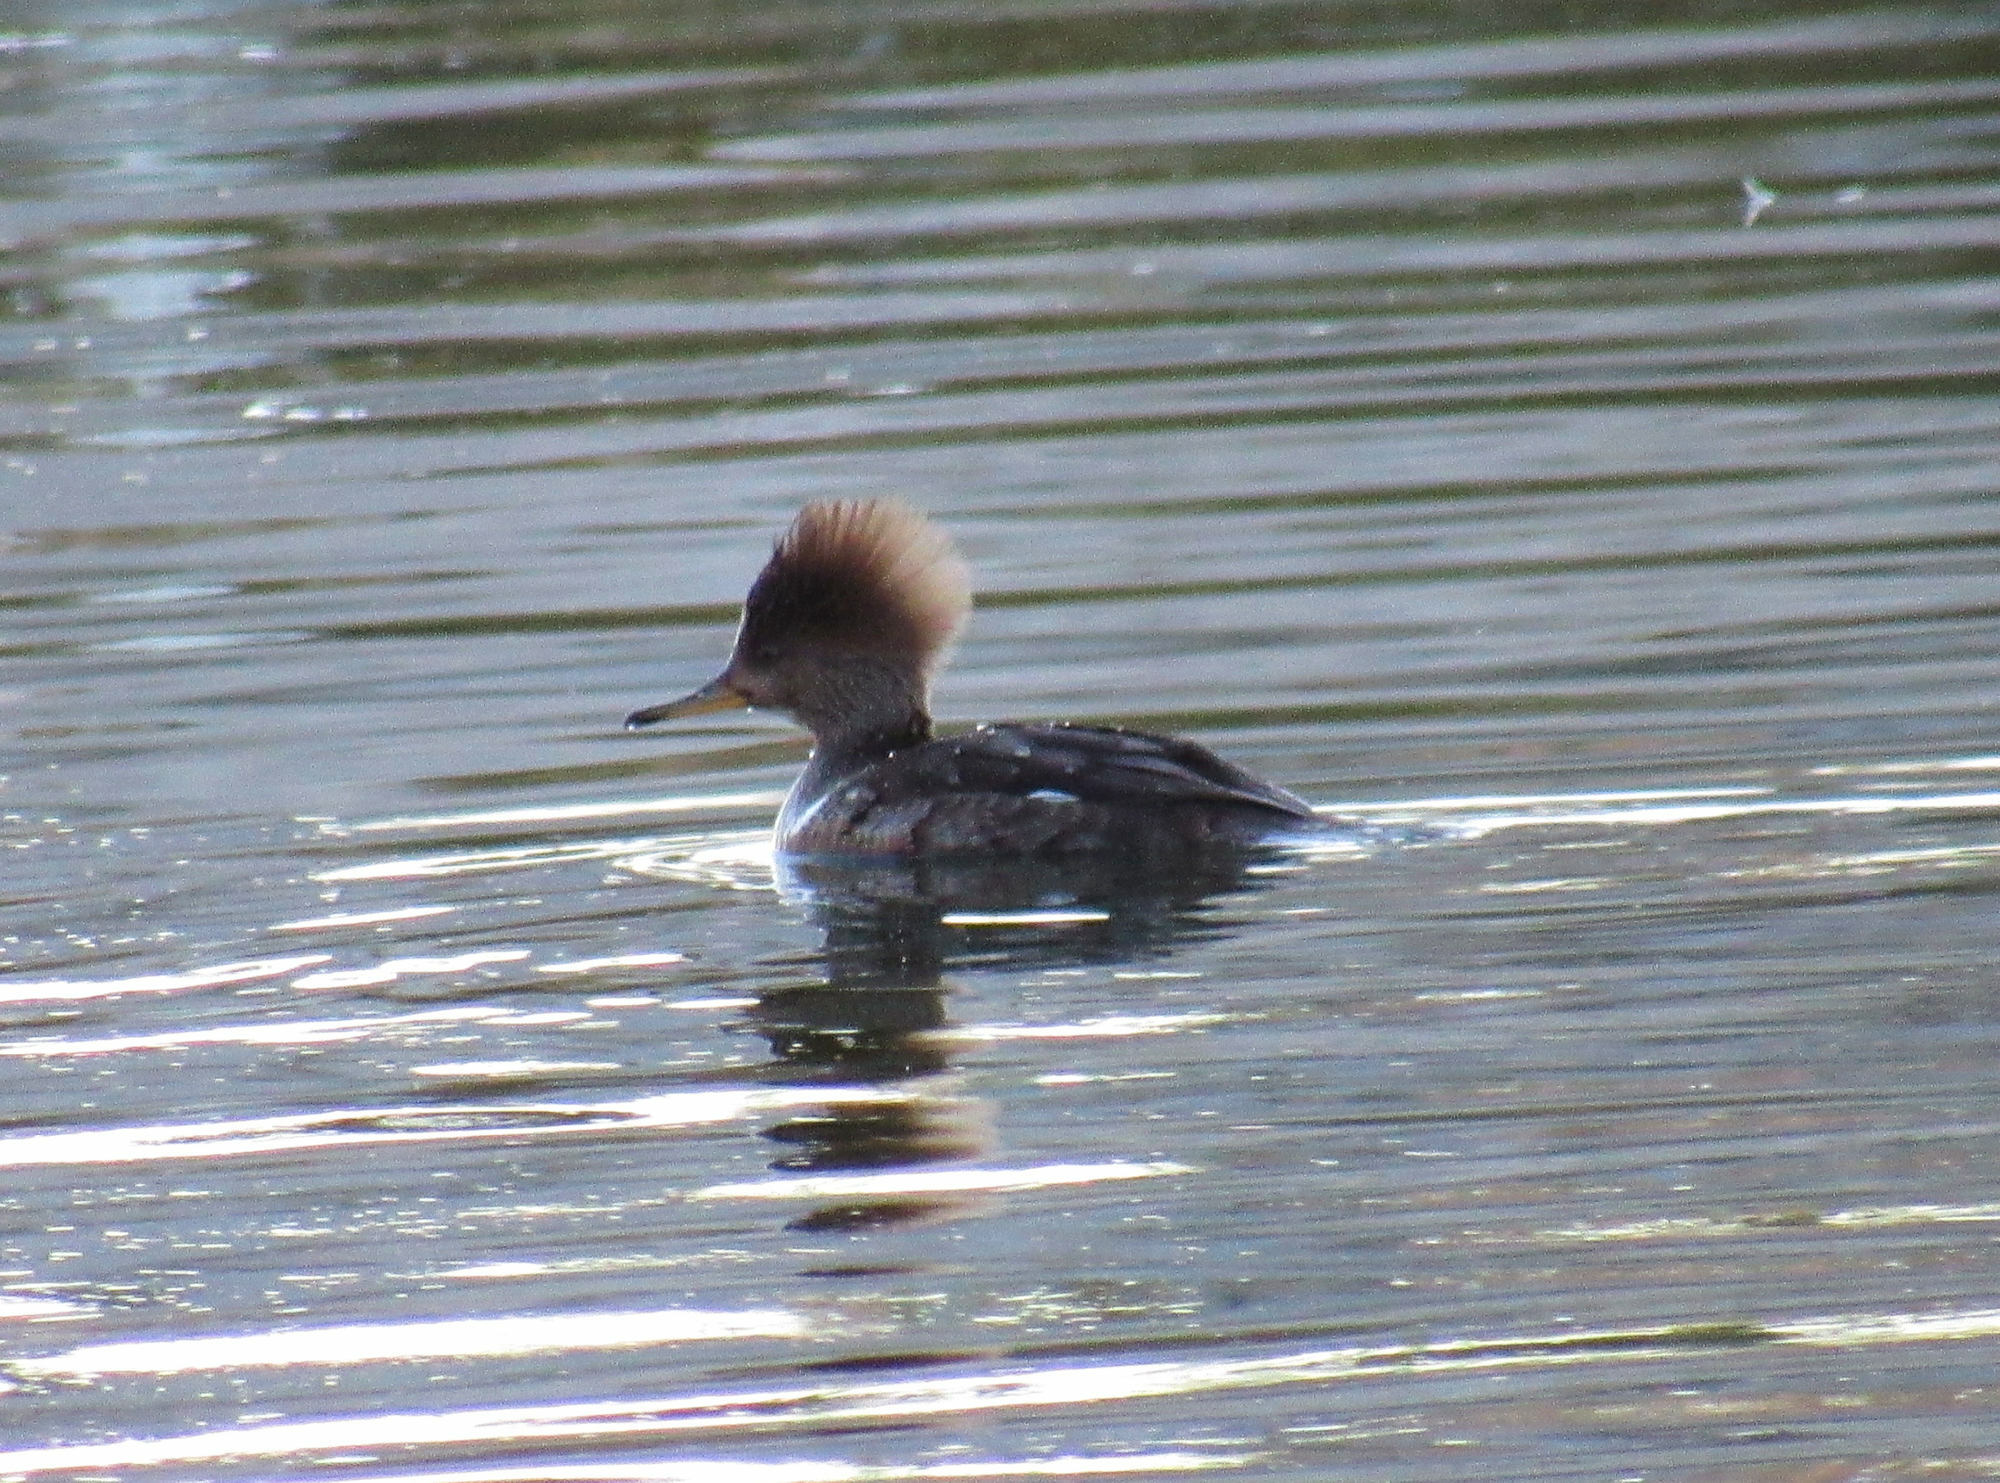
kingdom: Animalia
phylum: Chordata
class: Aves
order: Anseriformes
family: Anatidae
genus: Lophodytes
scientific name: Lophodytes cucullatus
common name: Hooded merganser
